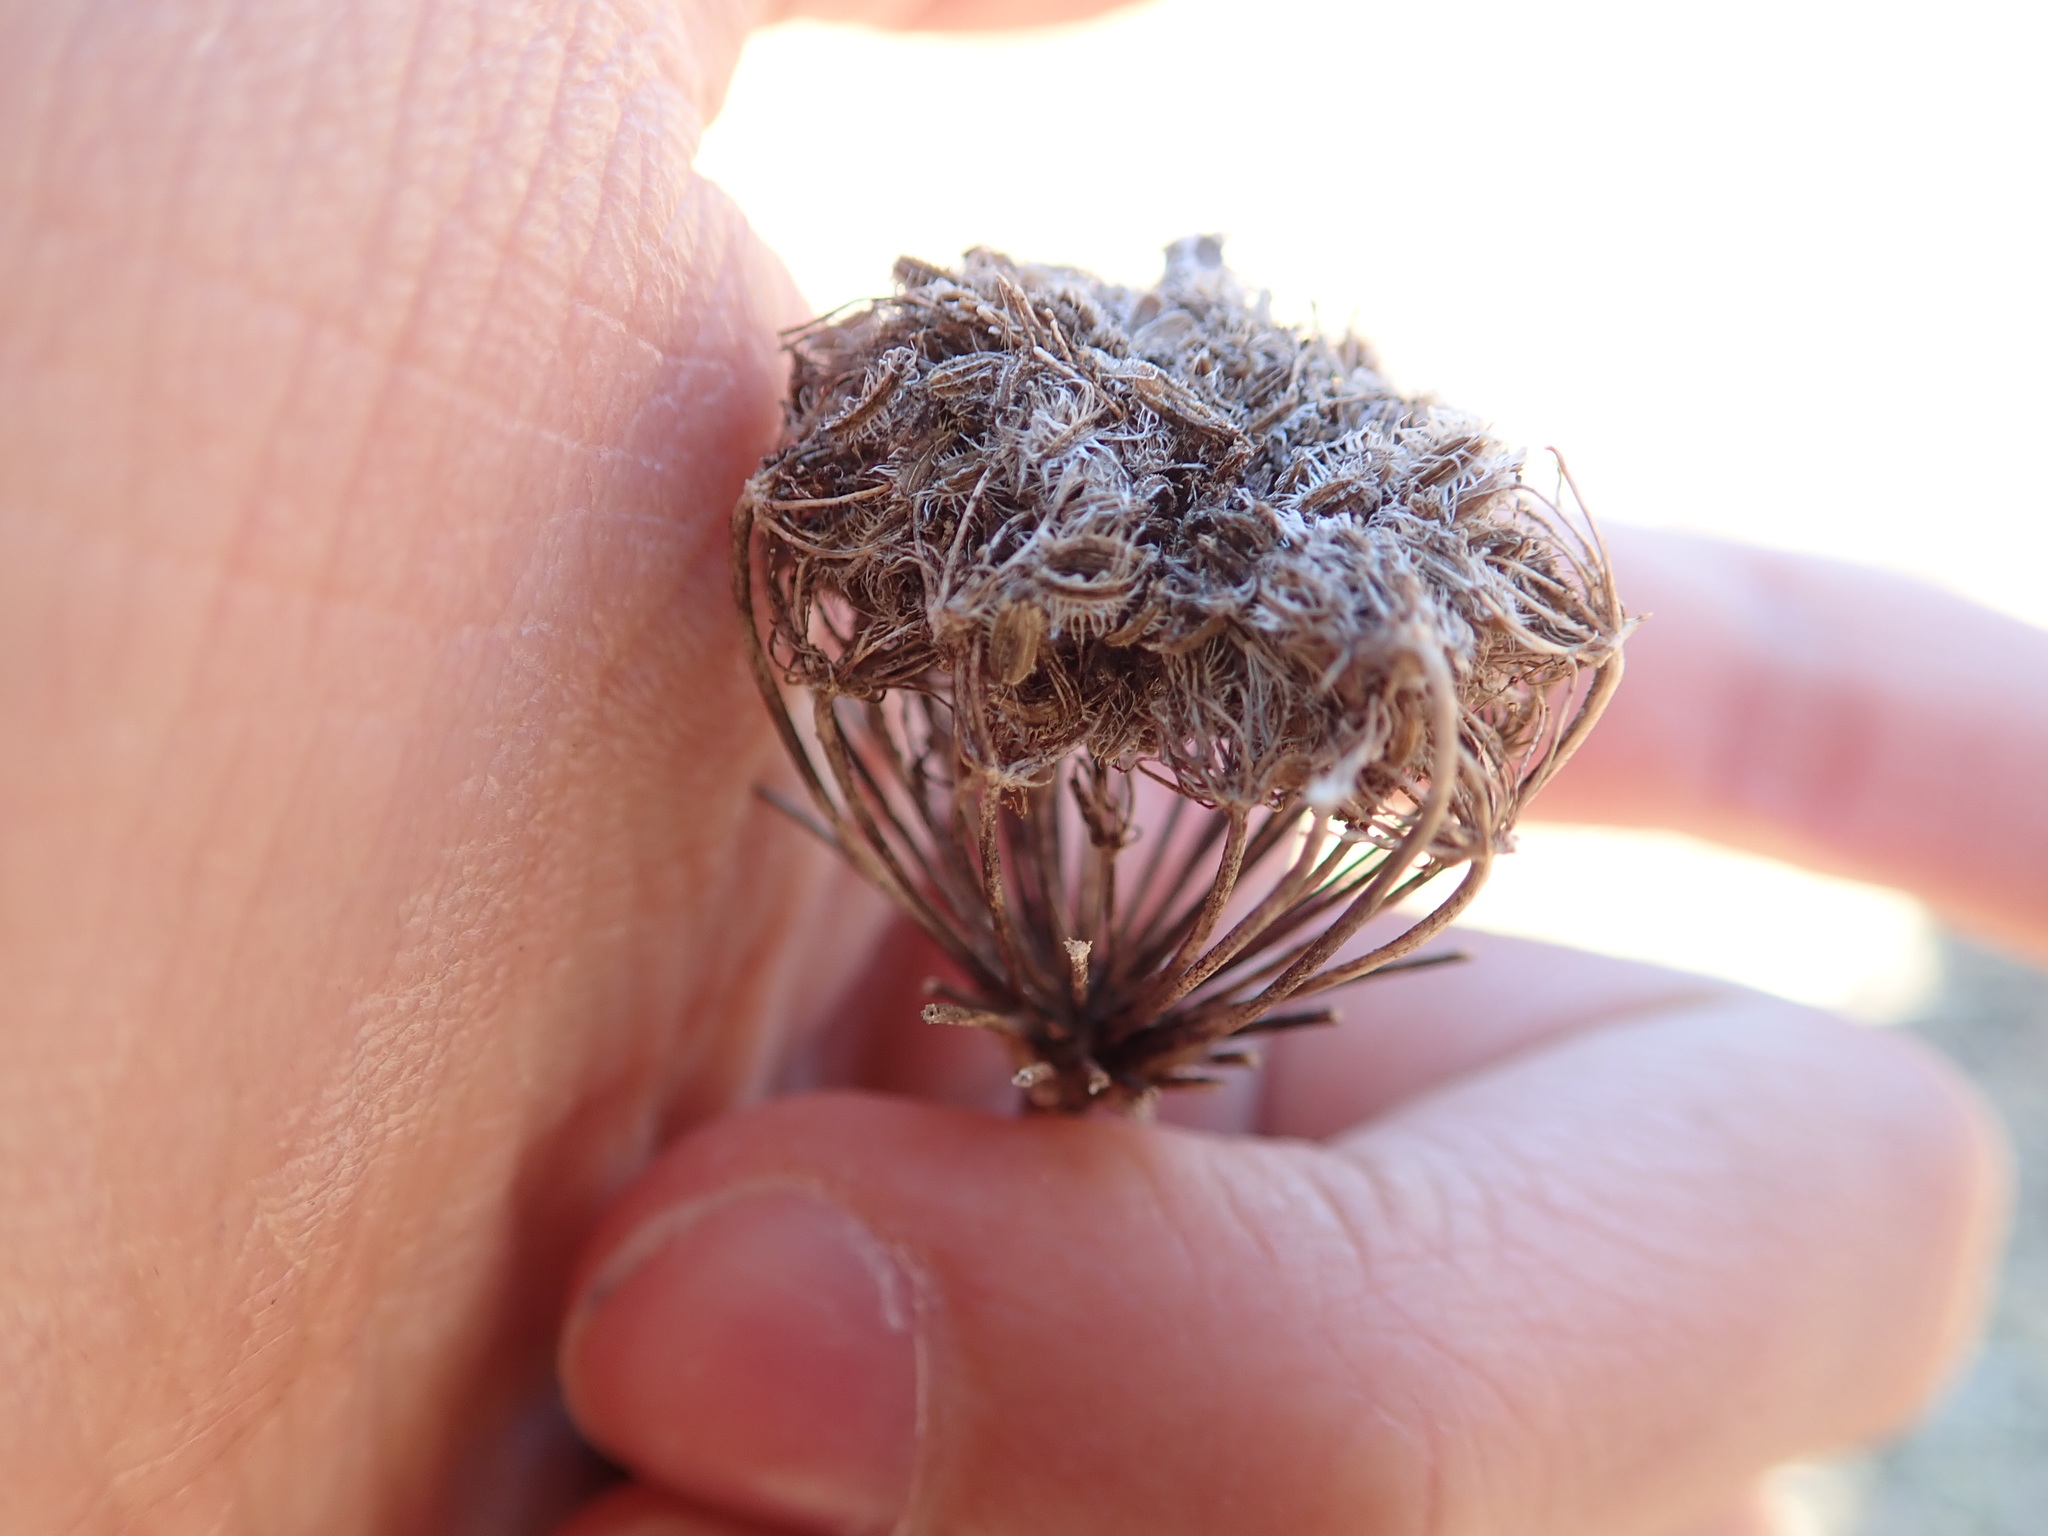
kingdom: Plantae
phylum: Tracheophyta
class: Magnoliopsida
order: Apiales
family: Apiaceae
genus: Daucus
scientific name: Daucus carota
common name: Wild carrot
